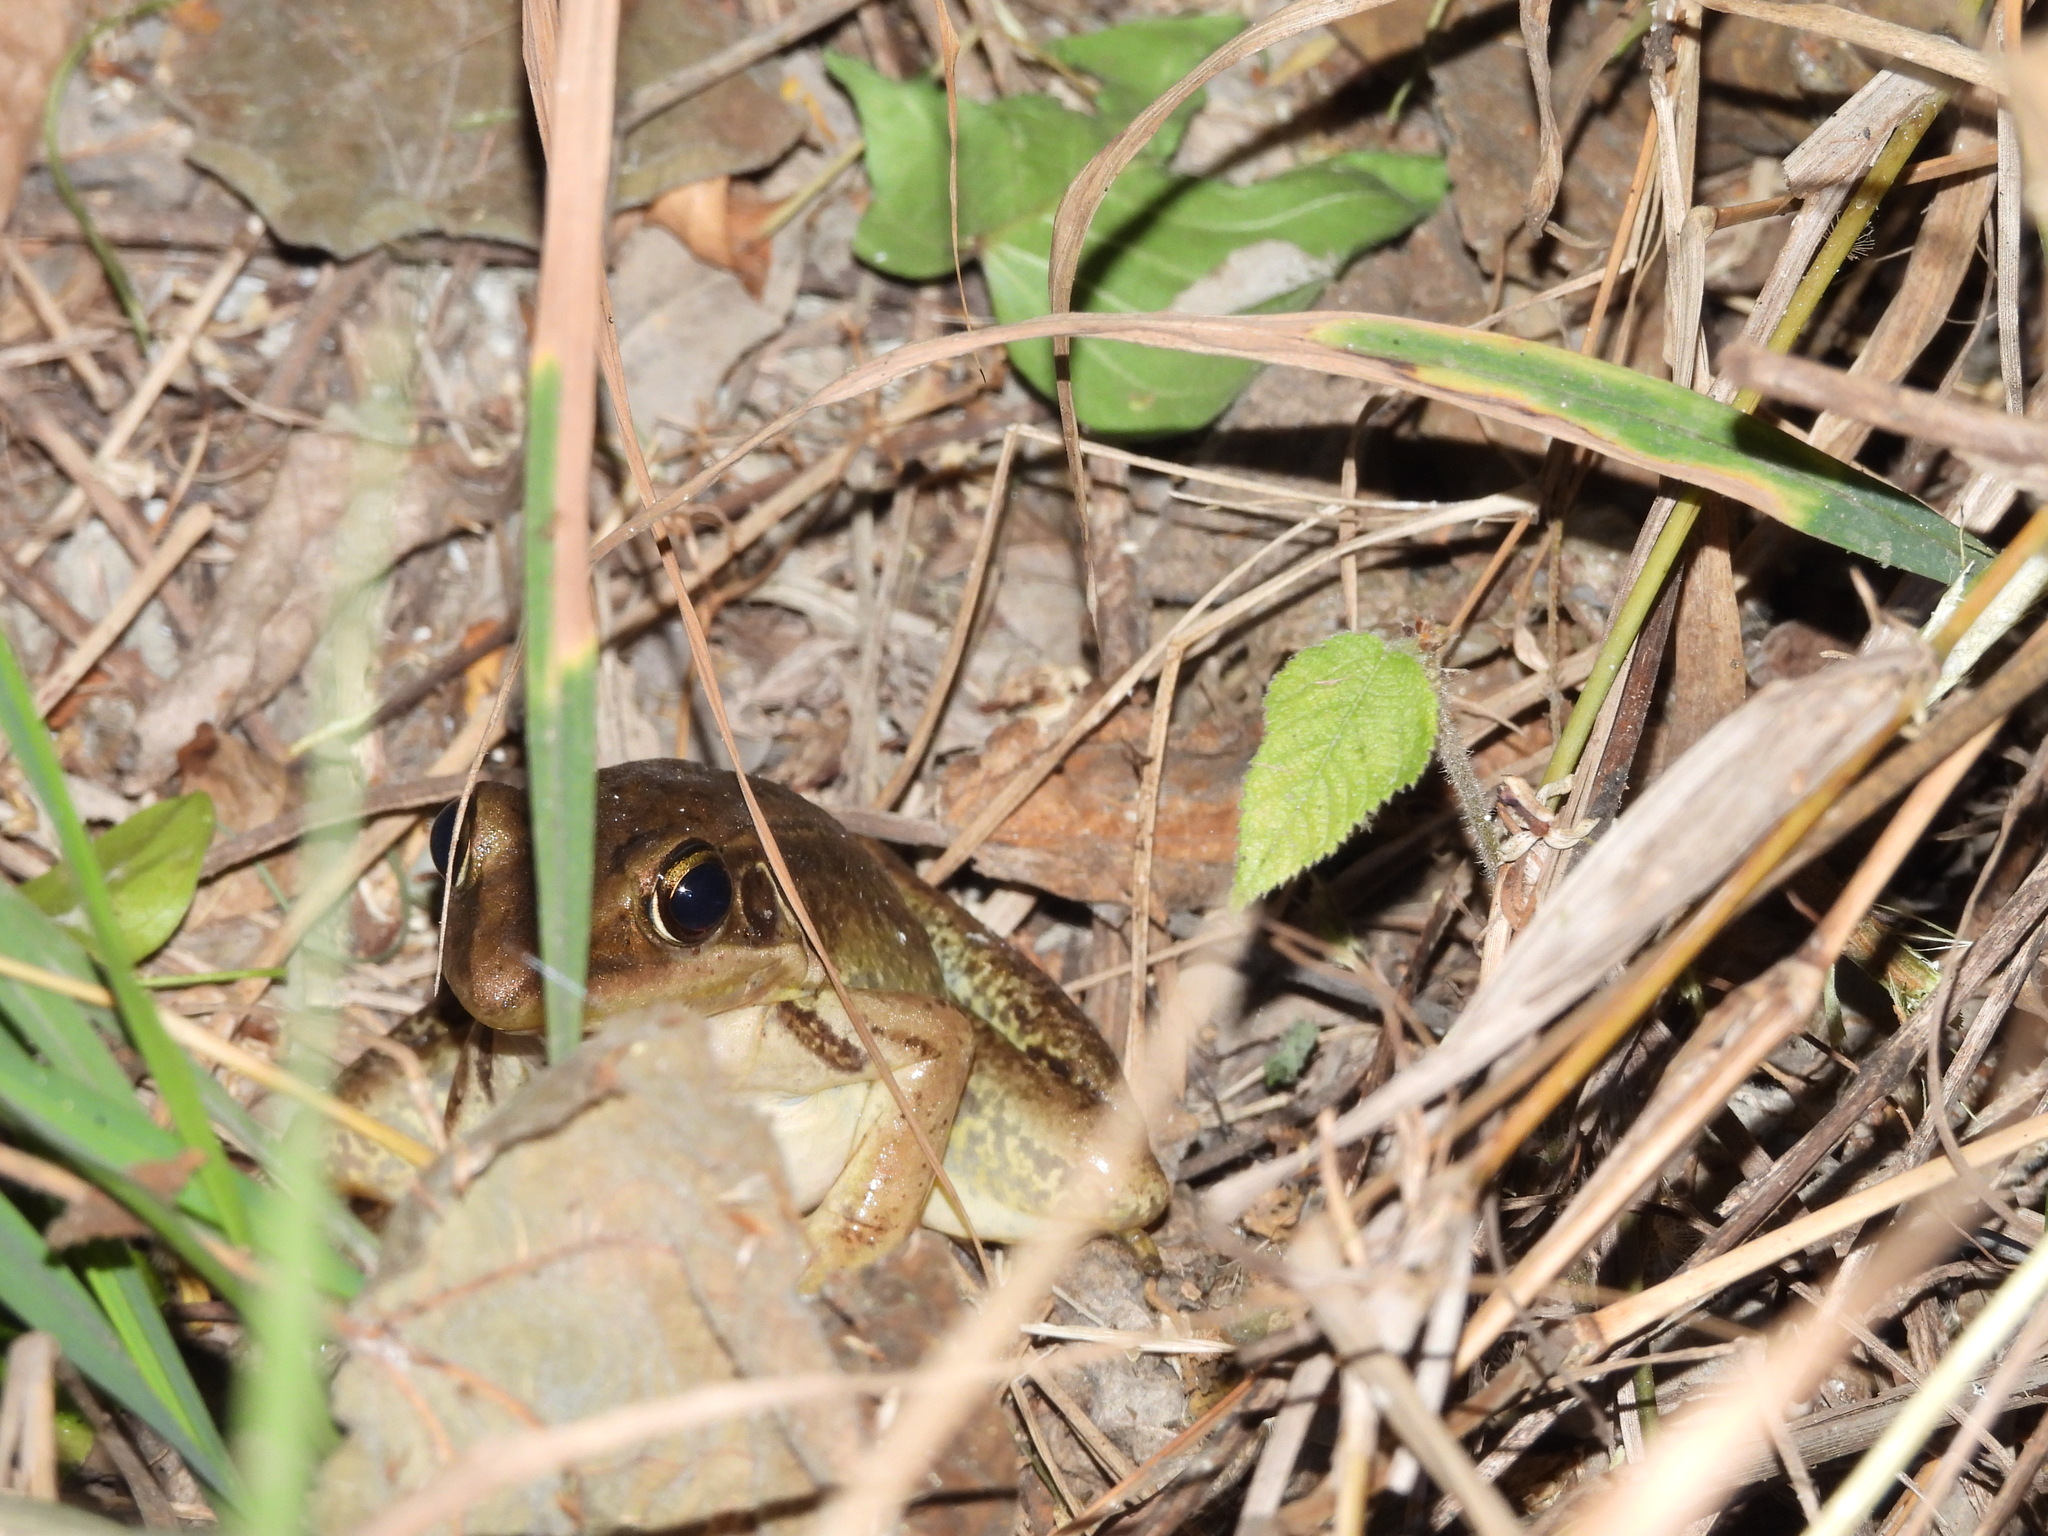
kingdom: Animalia
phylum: Chordata
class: Amphibia
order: Anura
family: Ranidae
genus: Sylvirana
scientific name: Sylvirana guentheri
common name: Guenther's amoy frog
